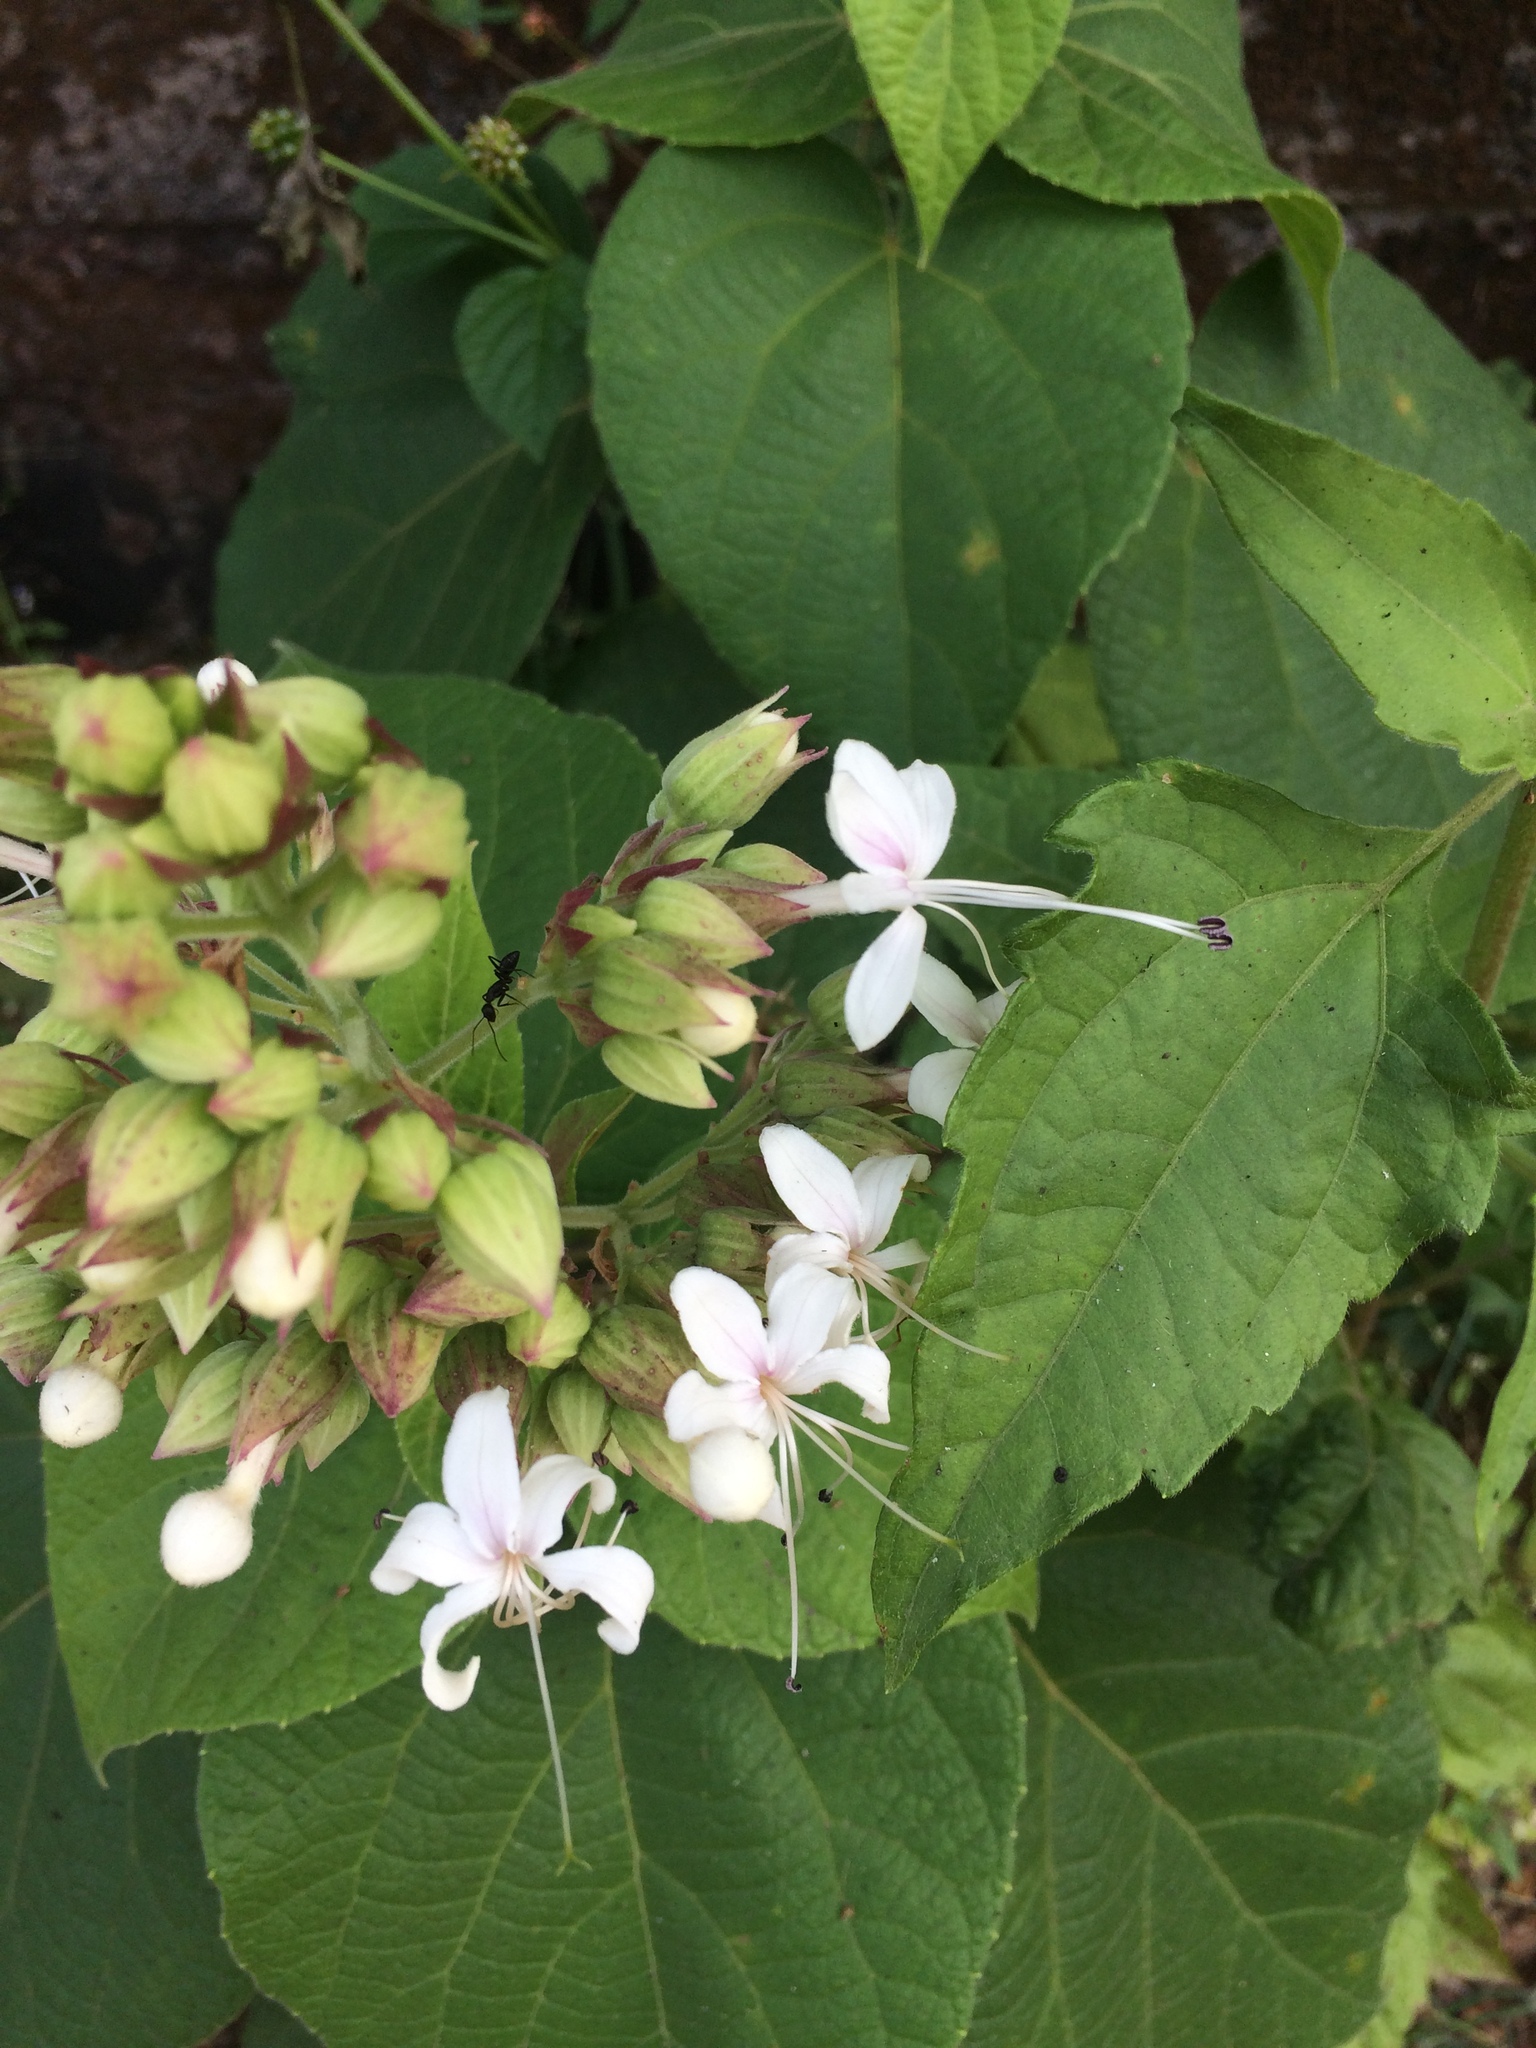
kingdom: Plantae
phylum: Tracheophyta
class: Magnoliopsida
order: Lamiales
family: Lamiaceae
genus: Clerodendrum
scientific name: Clerodendrum infortunatum
